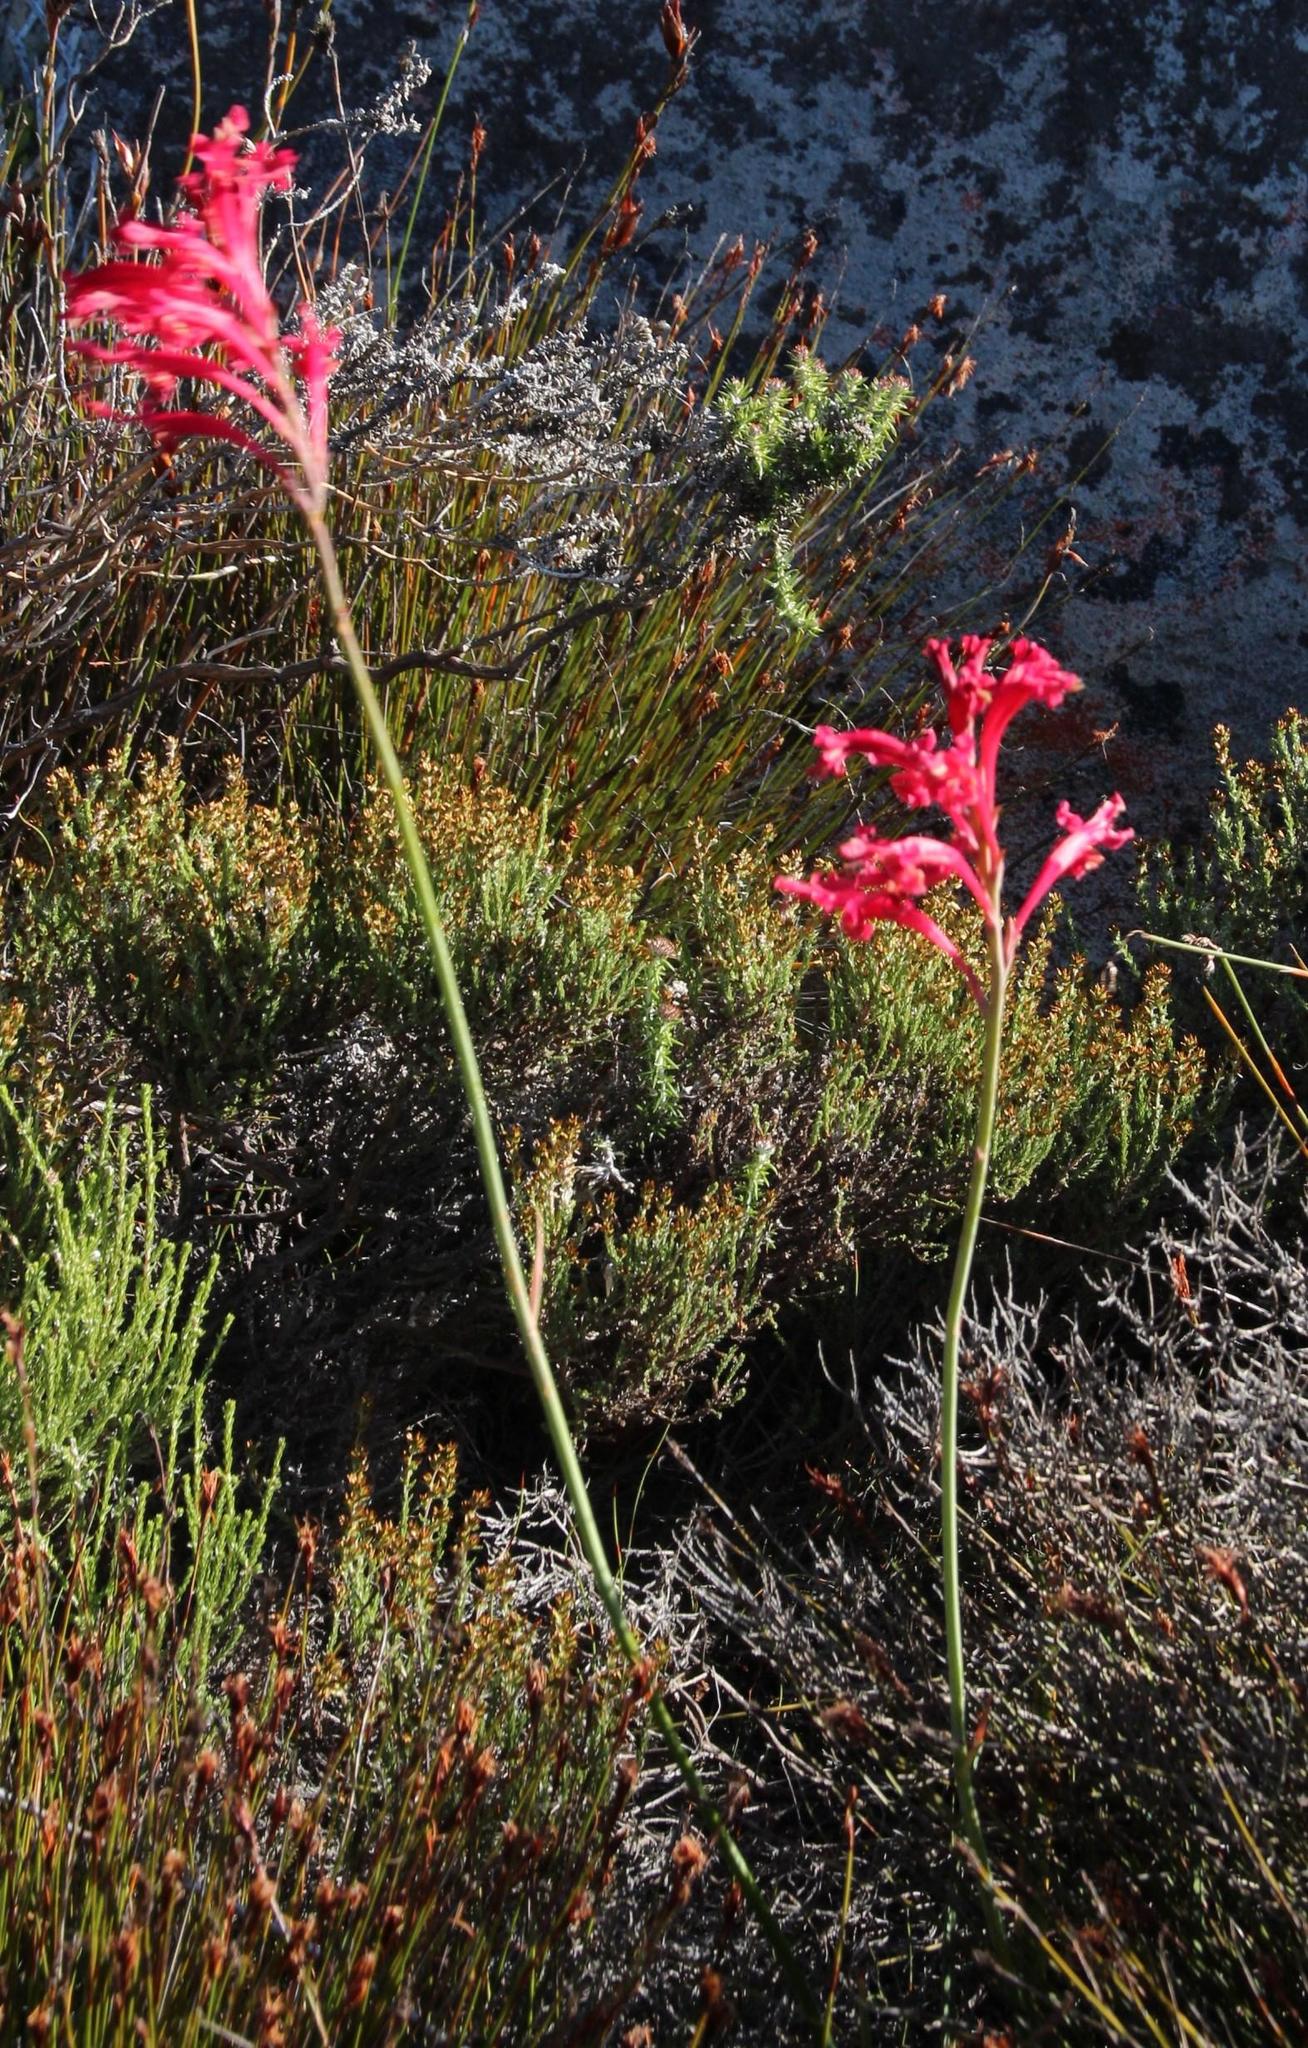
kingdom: Plantae
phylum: Tracheophyta
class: Liliopsida
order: Asparagales
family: Iridaceae
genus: Tritoniopsis
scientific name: Tritoniopsis antholyza
